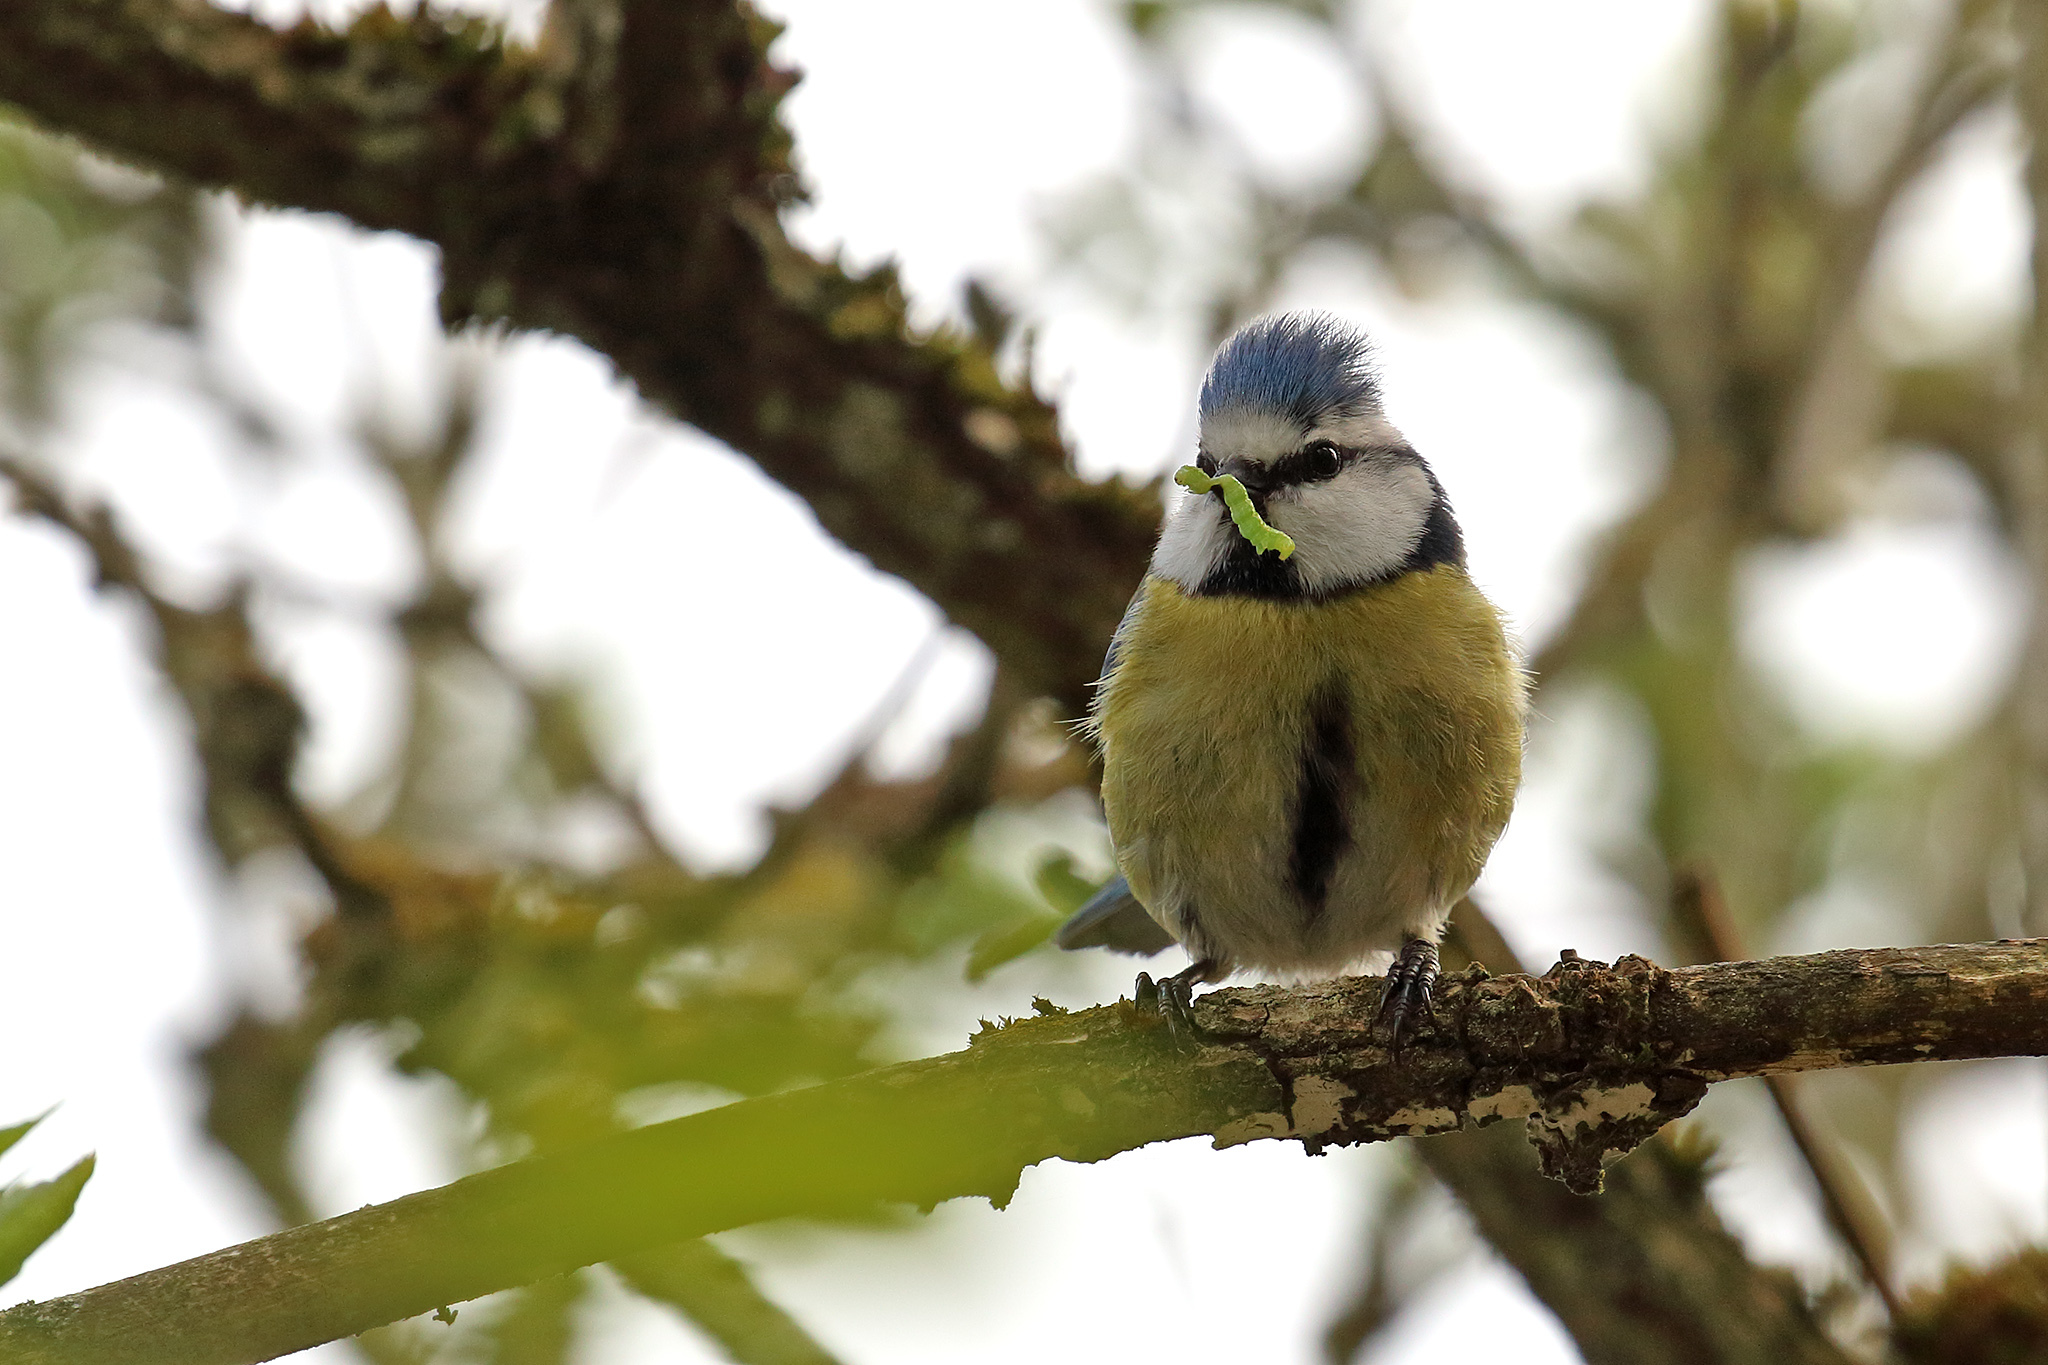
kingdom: Animalia
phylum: Chordata
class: Aves
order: Passeriformes
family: Paridae
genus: Cyanistes
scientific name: Cyanistes caeruleus
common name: Eurasian blue tit
